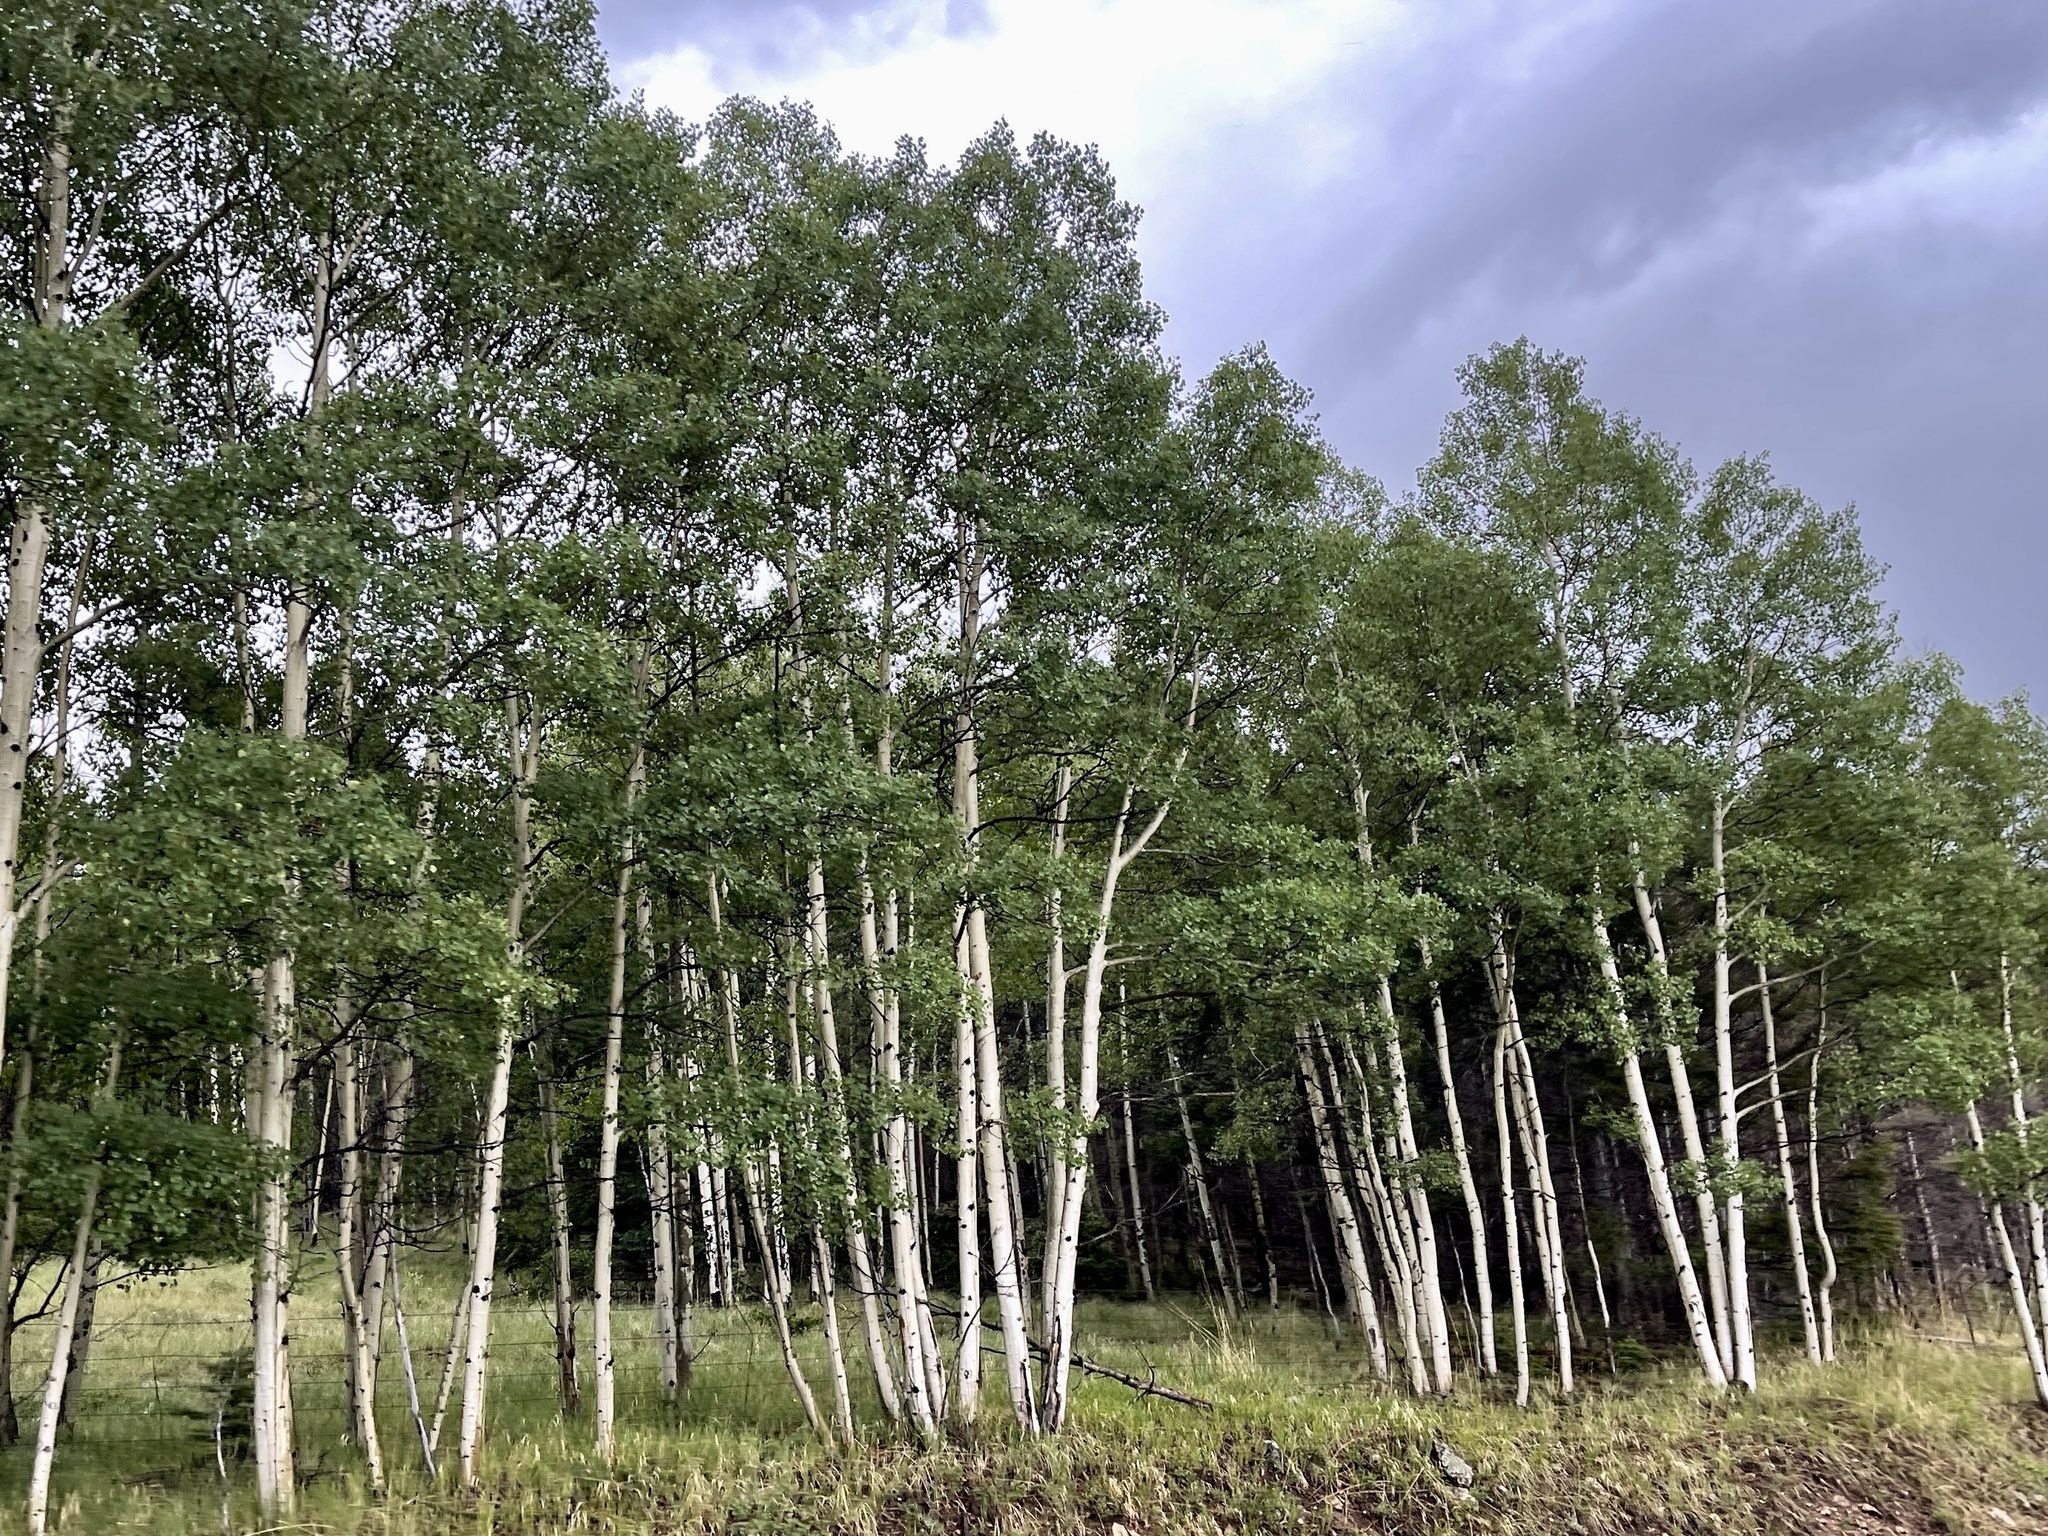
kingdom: Plantae
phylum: Tracheophyta
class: Magnoliopsida
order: Malpighiales
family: Salicaceae
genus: Populus
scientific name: Populus tremuloides
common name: Quaking aspen
